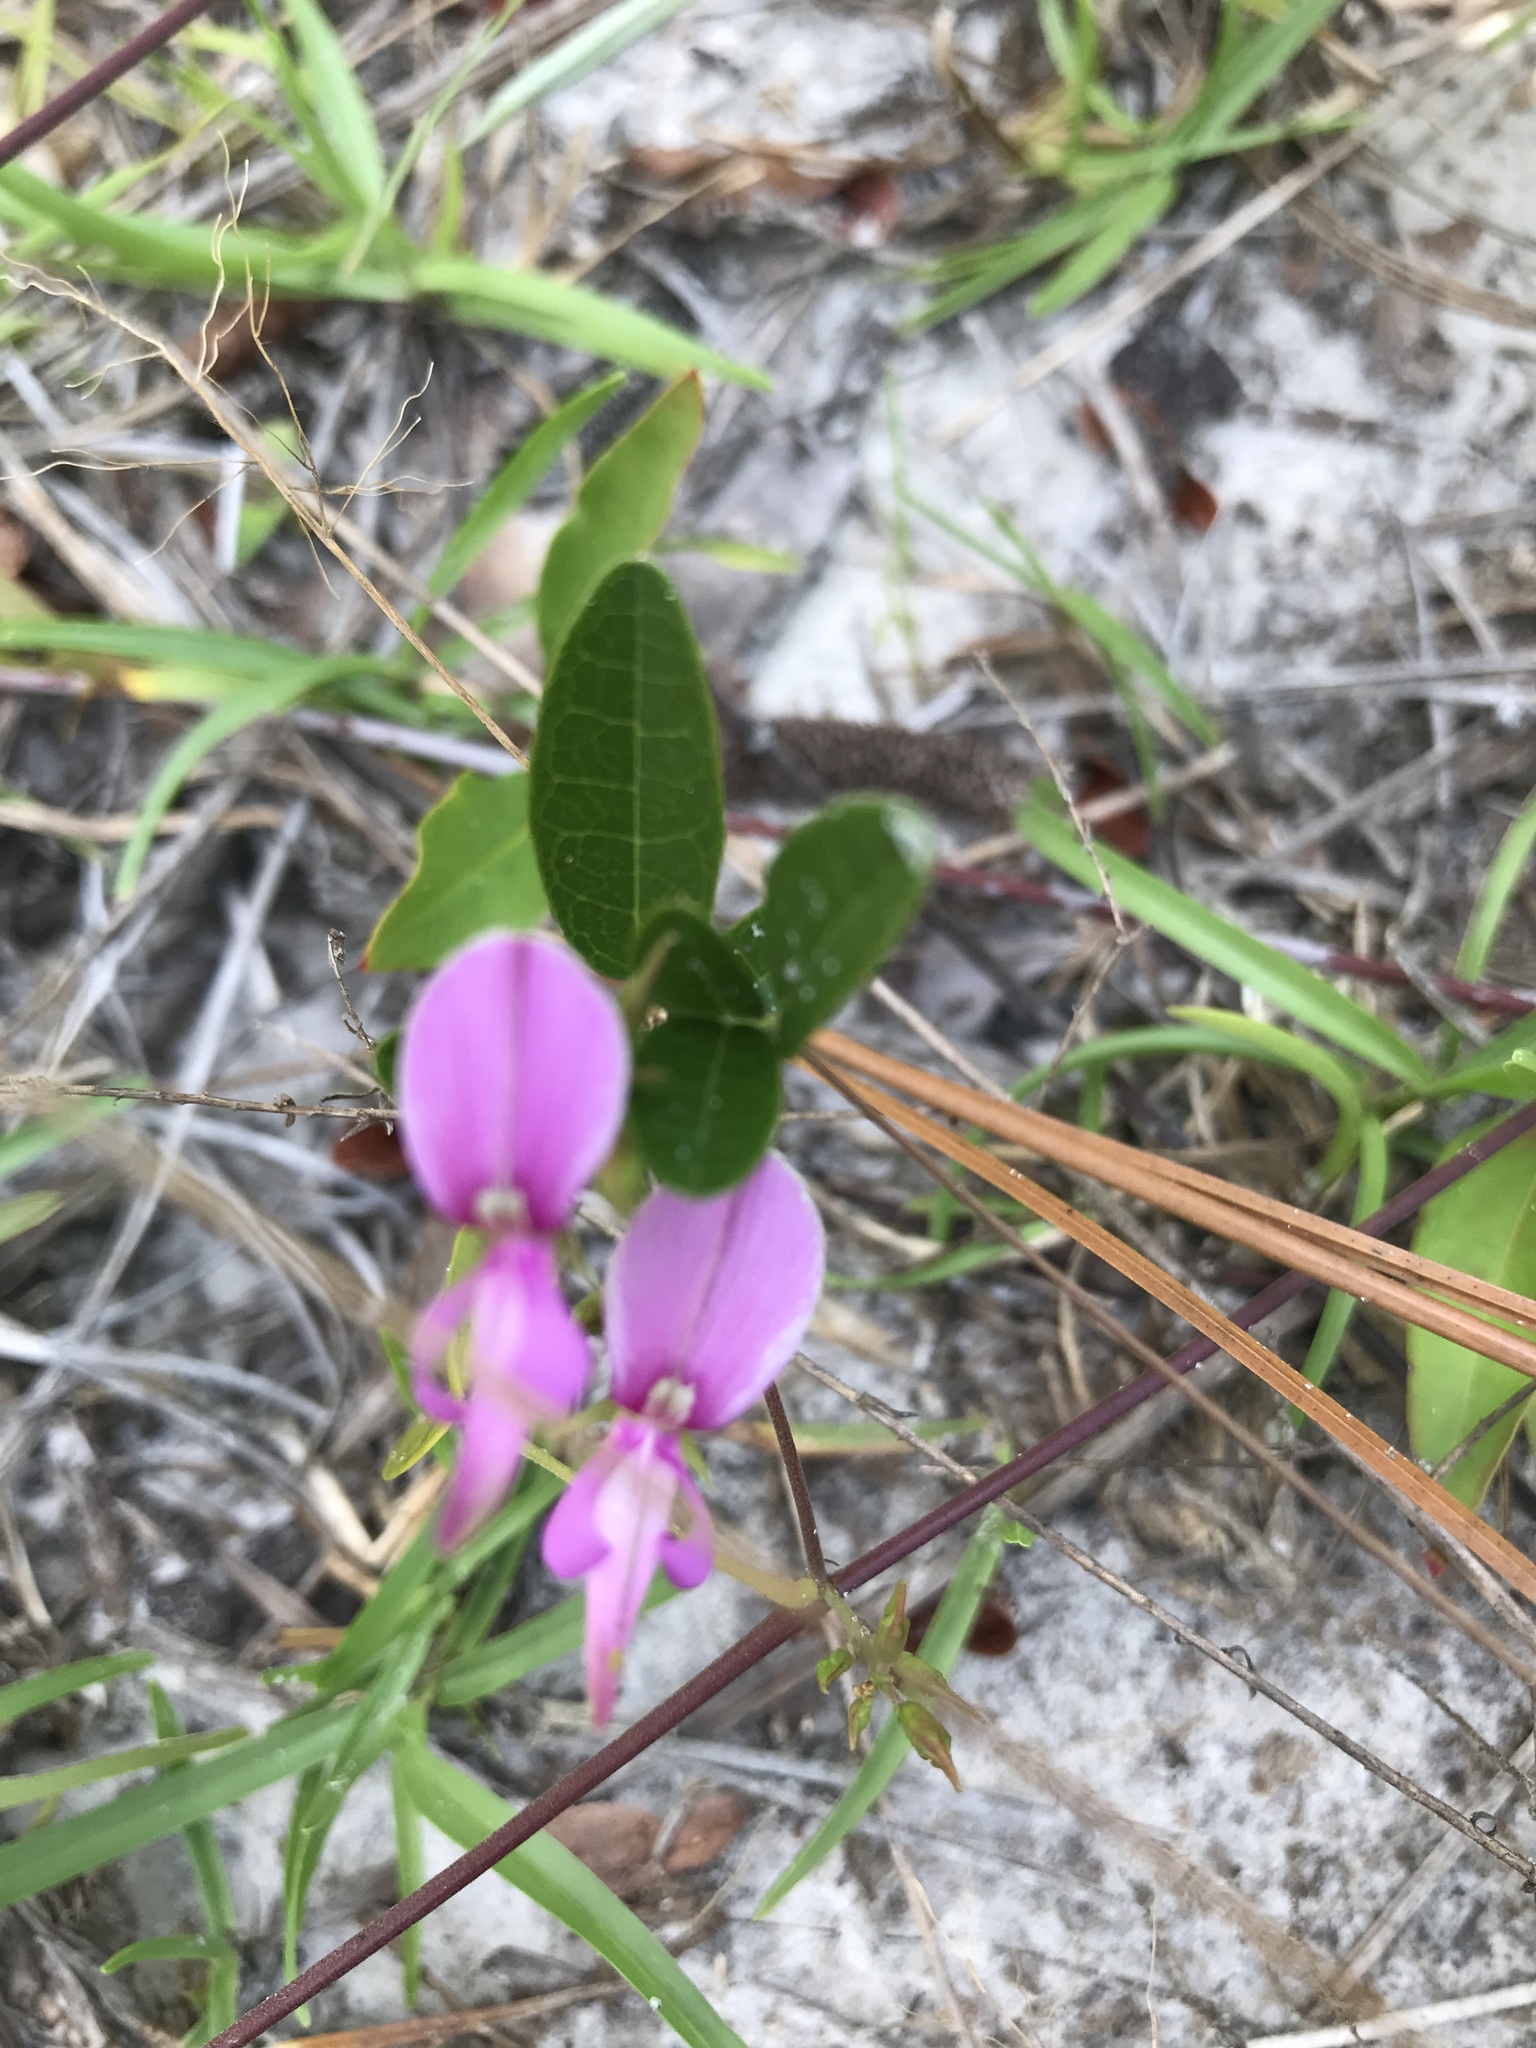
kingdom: Plantae
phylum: Tracheophyta
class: Magnoliopsida
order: Fabales
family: Fabaceae
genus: Galactia
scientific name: Galactia regularis
